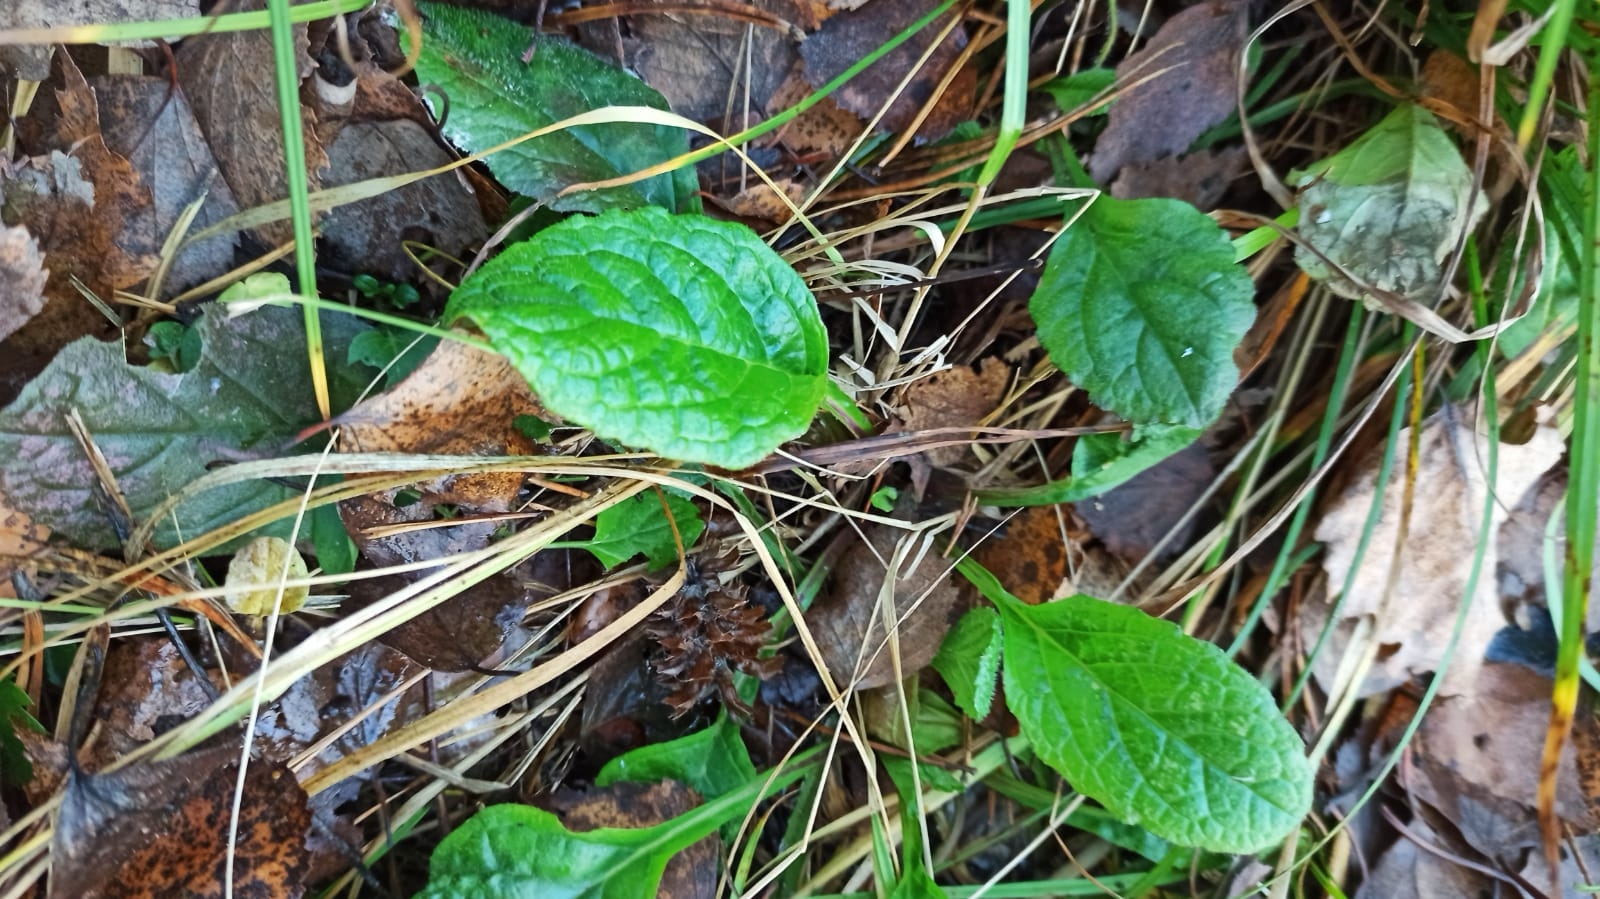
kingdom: Plantae
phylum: Tracheophyta
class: Magnoliopsida
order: Lamiales
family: Lamiaceae
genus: Ajuga
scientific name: Ajuga reptans
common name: Bugle
